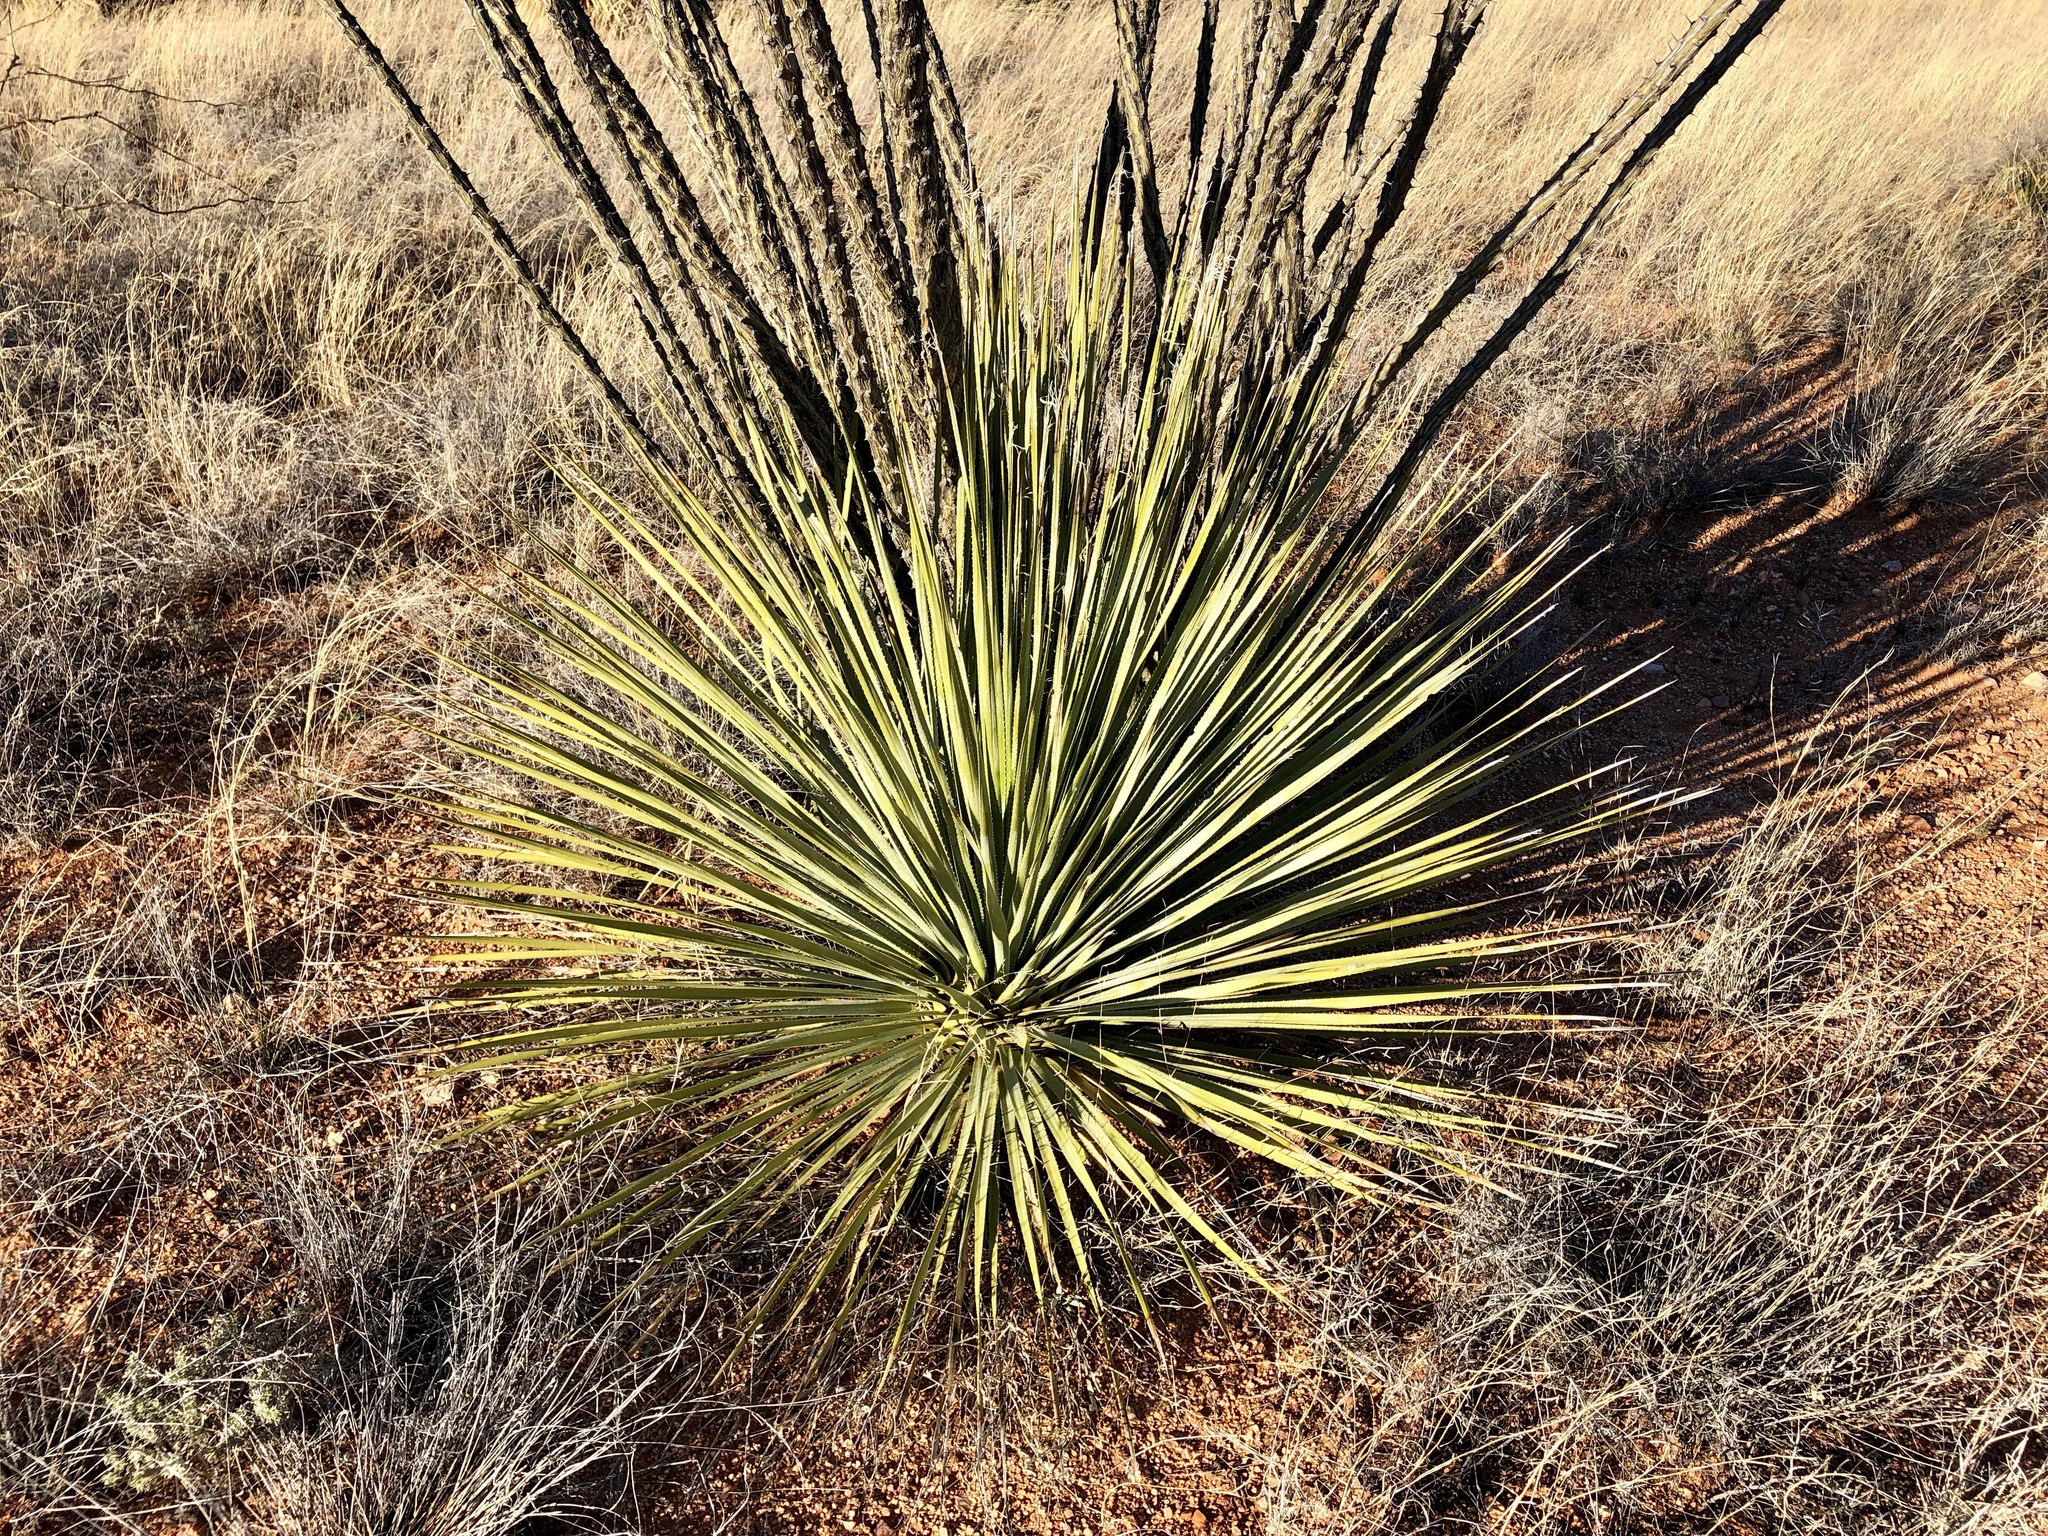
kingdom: Plantae
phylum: Tracheophyta
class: Liliopsida
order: Asparagales
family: Asparagaceae
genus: Dasylirion
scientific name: Dasylirion wheeleri
